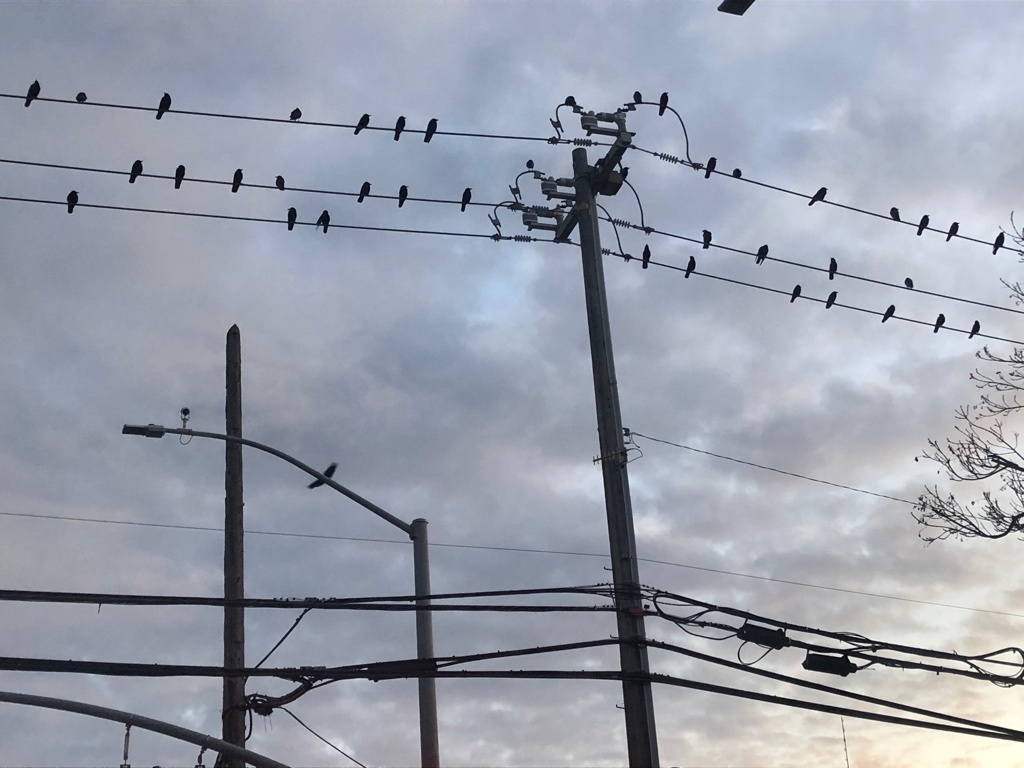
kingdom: Animalia
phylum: Chordata
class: Aves
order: Passeriformes
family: Corvidae
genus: Corvus
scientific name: Corvus brachyrhynchos
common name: American crow
